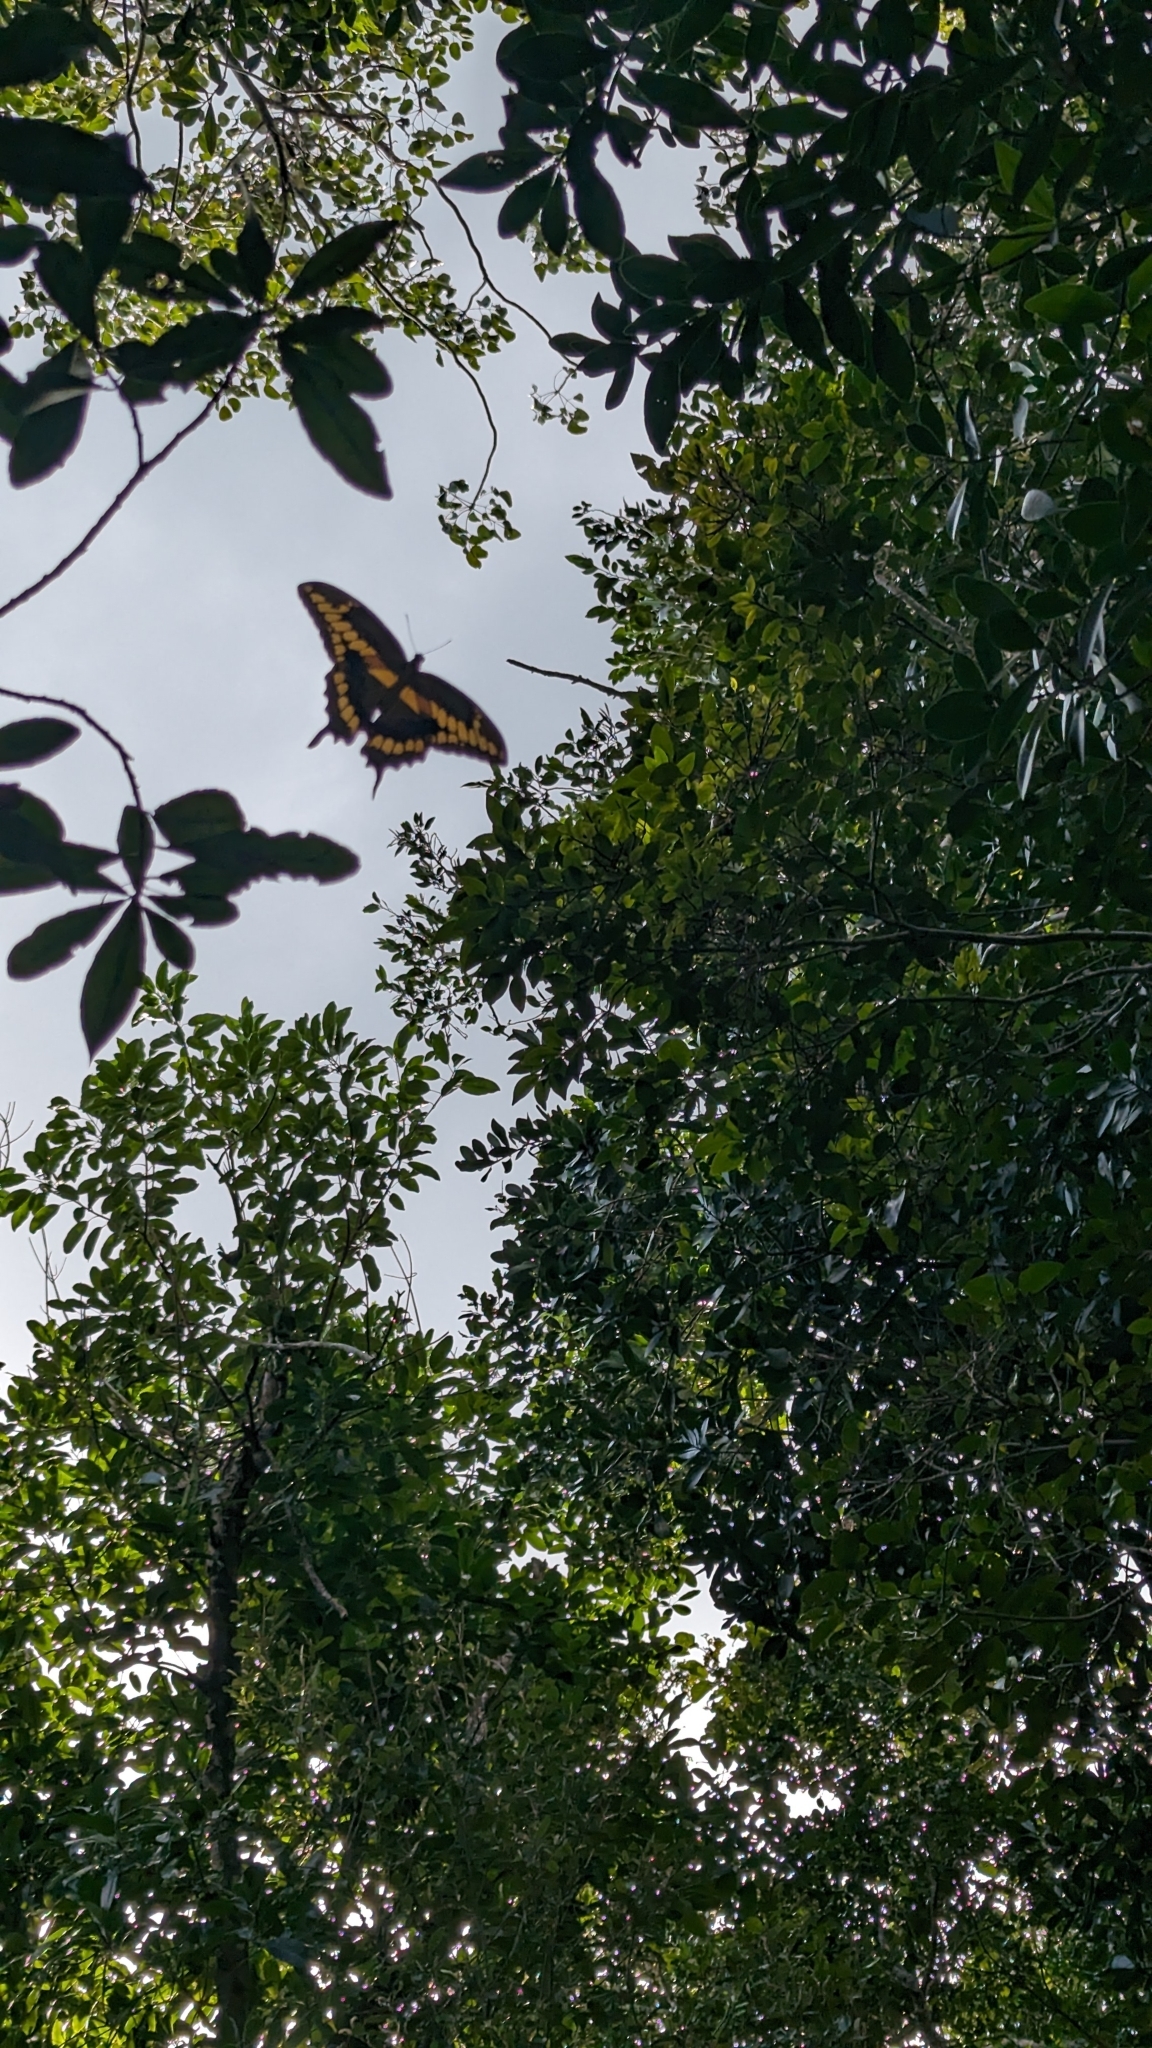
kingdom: Animalia
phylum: Arthropoda
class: Insecta
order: Lepidoptera
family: Papilionidae
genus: Papilio
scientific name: Papilio cresphontes
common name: Giant swallowtail
